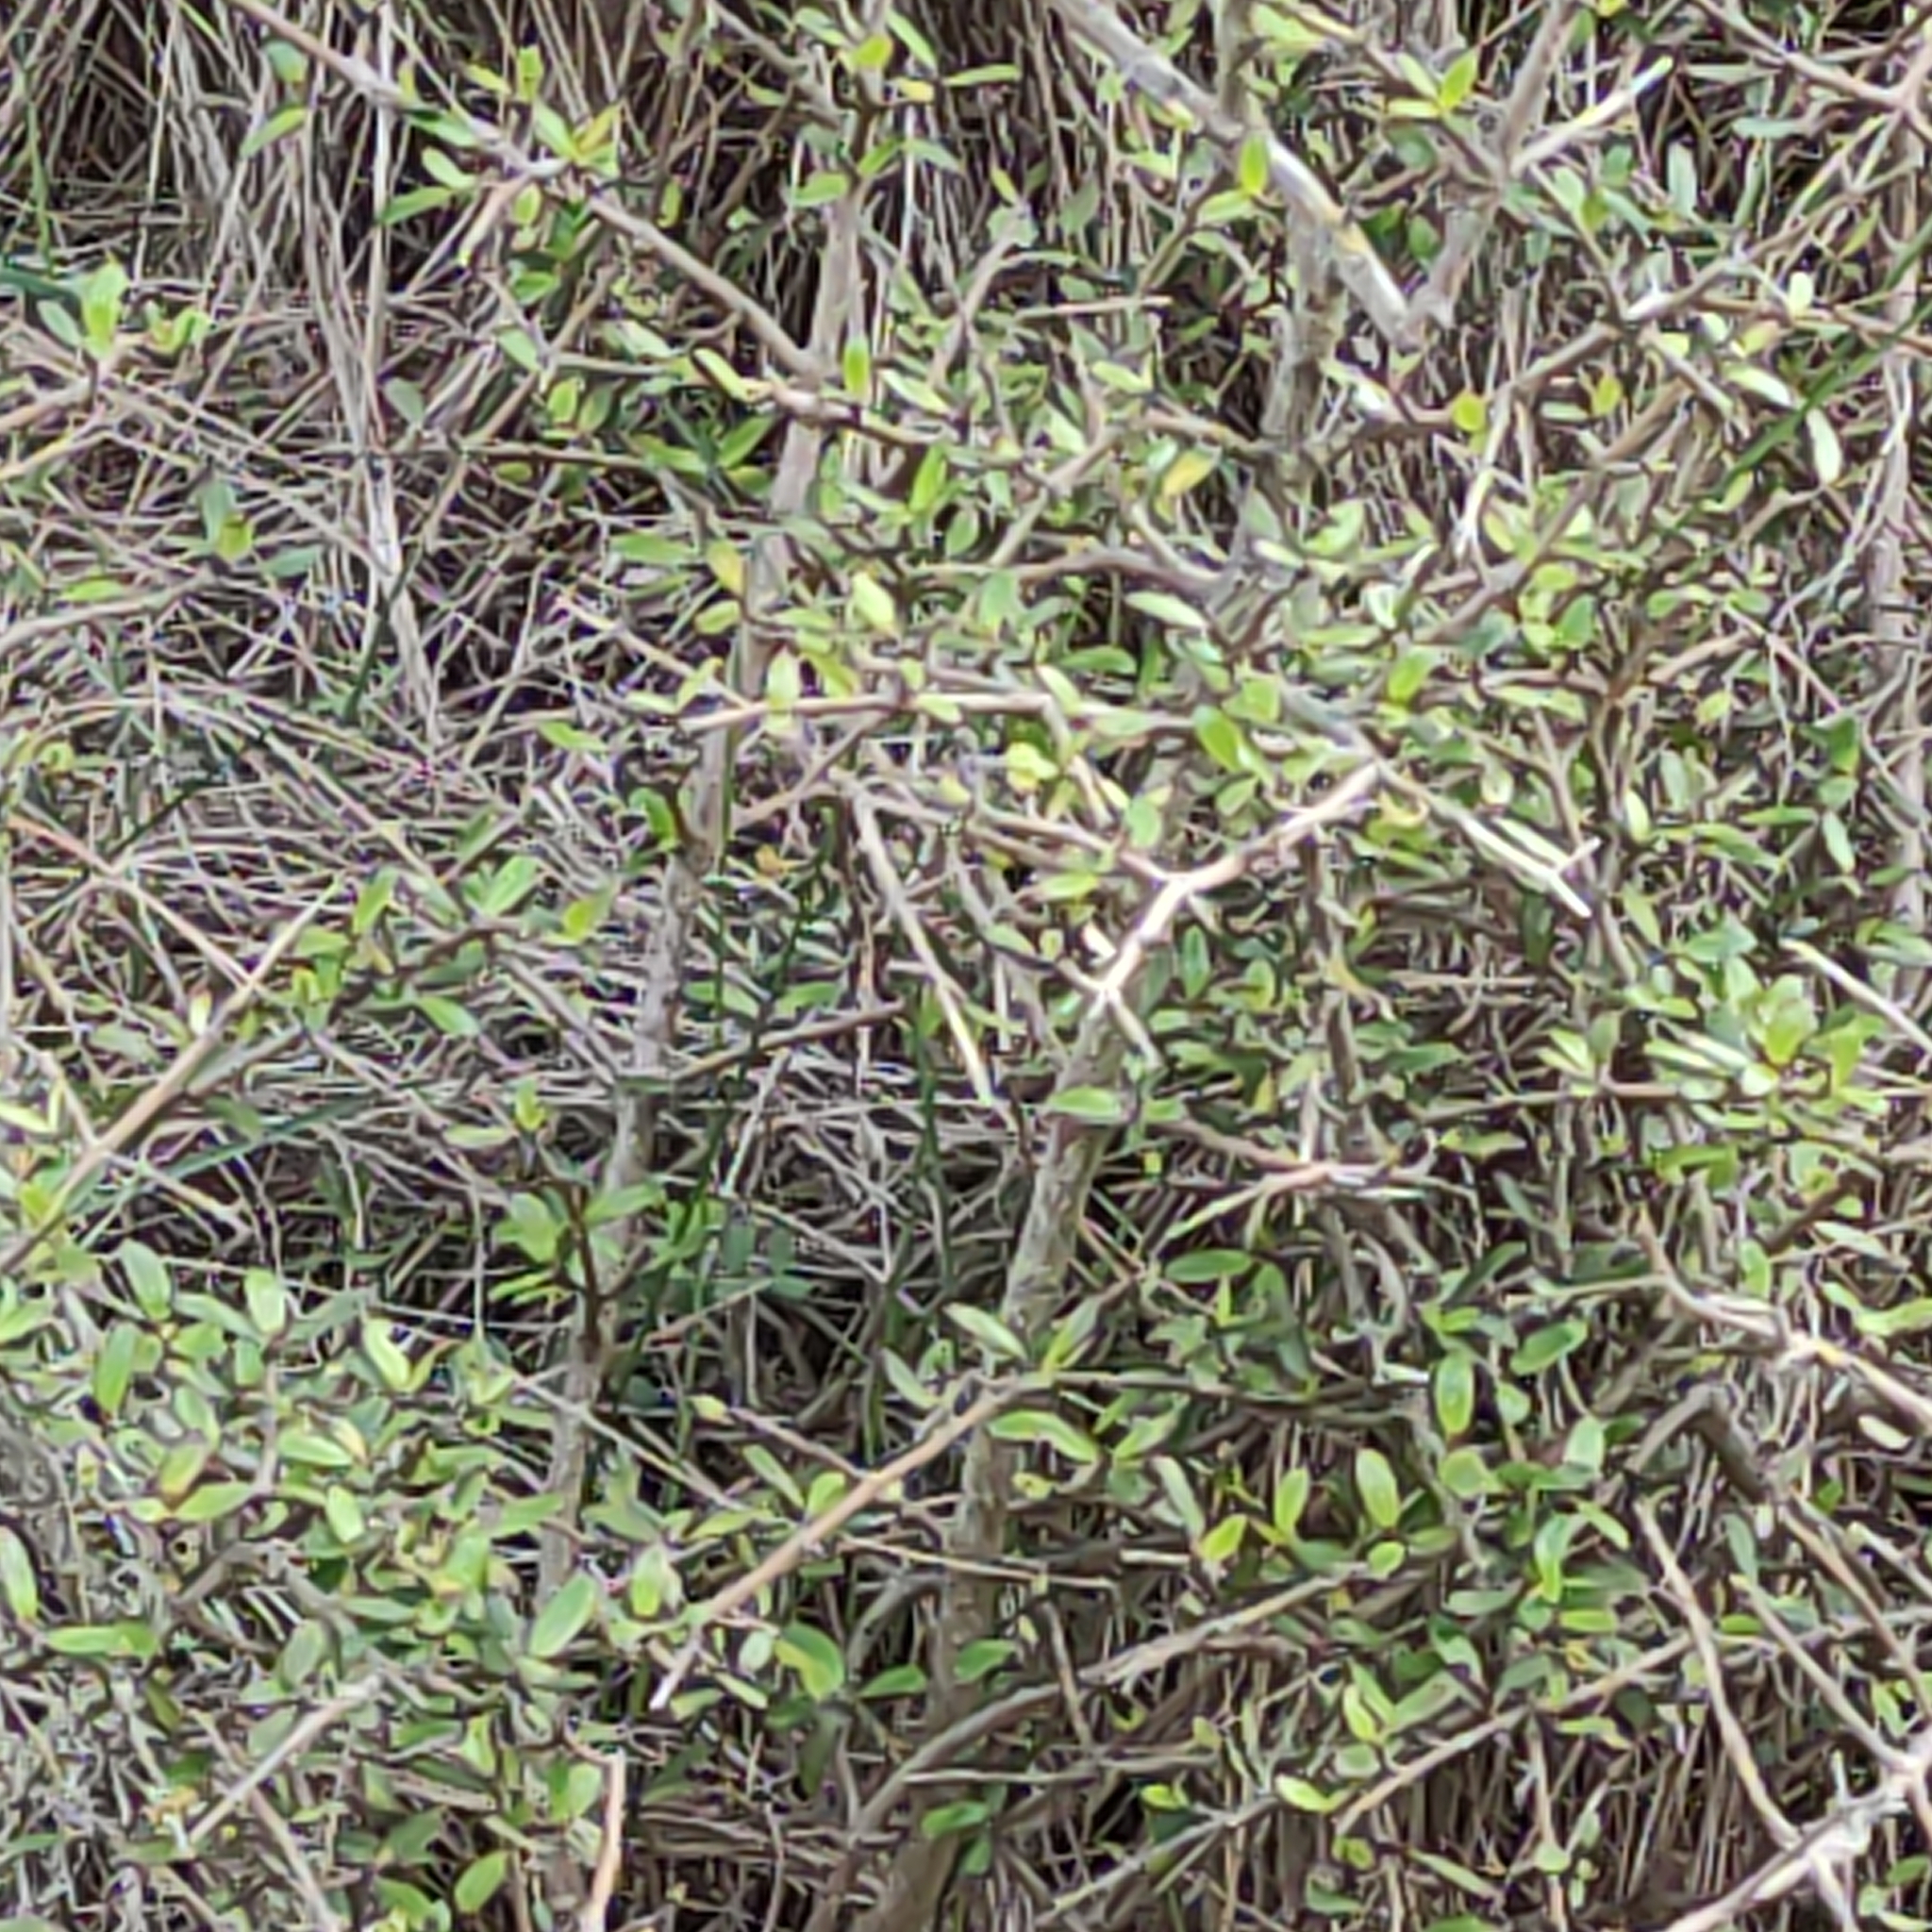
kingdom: Plantae
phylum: Tracheophyta
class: Magnoliopsida
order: Gentianales
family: Rubiaceae
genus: Coprosma
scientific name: Coprosma propinqua
